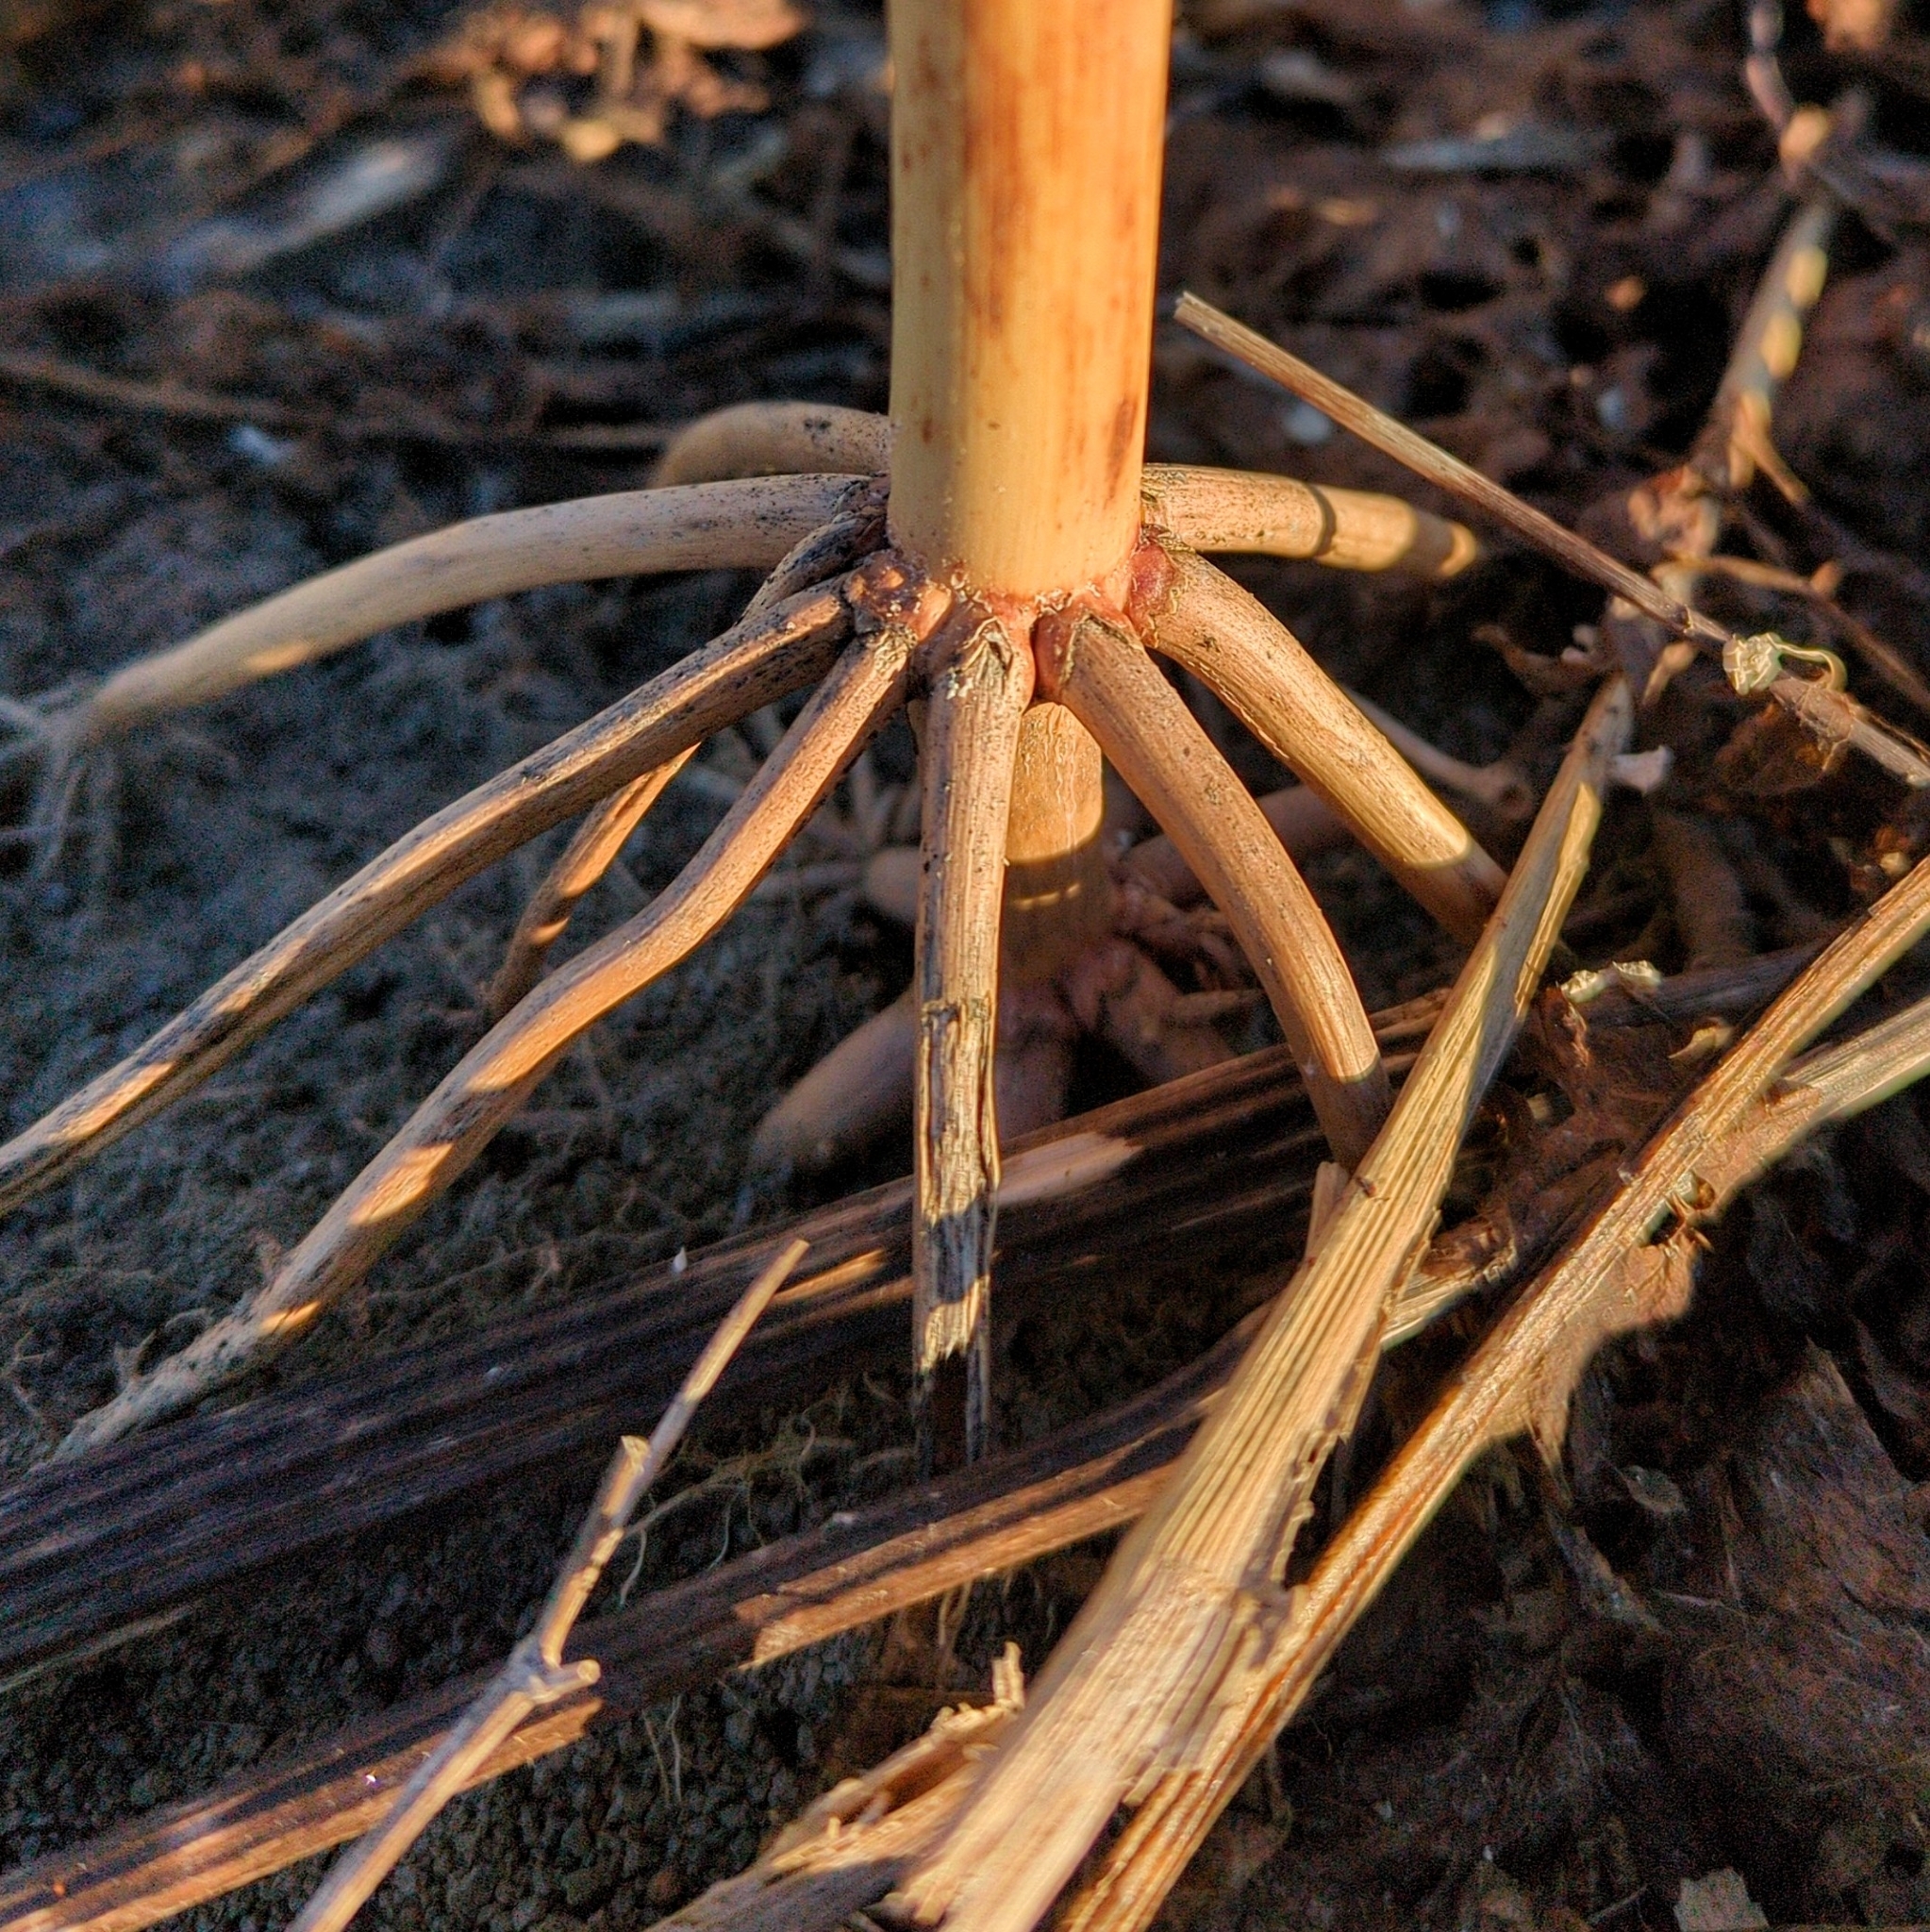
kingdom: Plantae
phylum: Tracheophyta
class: Liliopsida
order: Poales
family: Poaceae
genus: Zea
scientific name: Zea mays
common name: Maize
